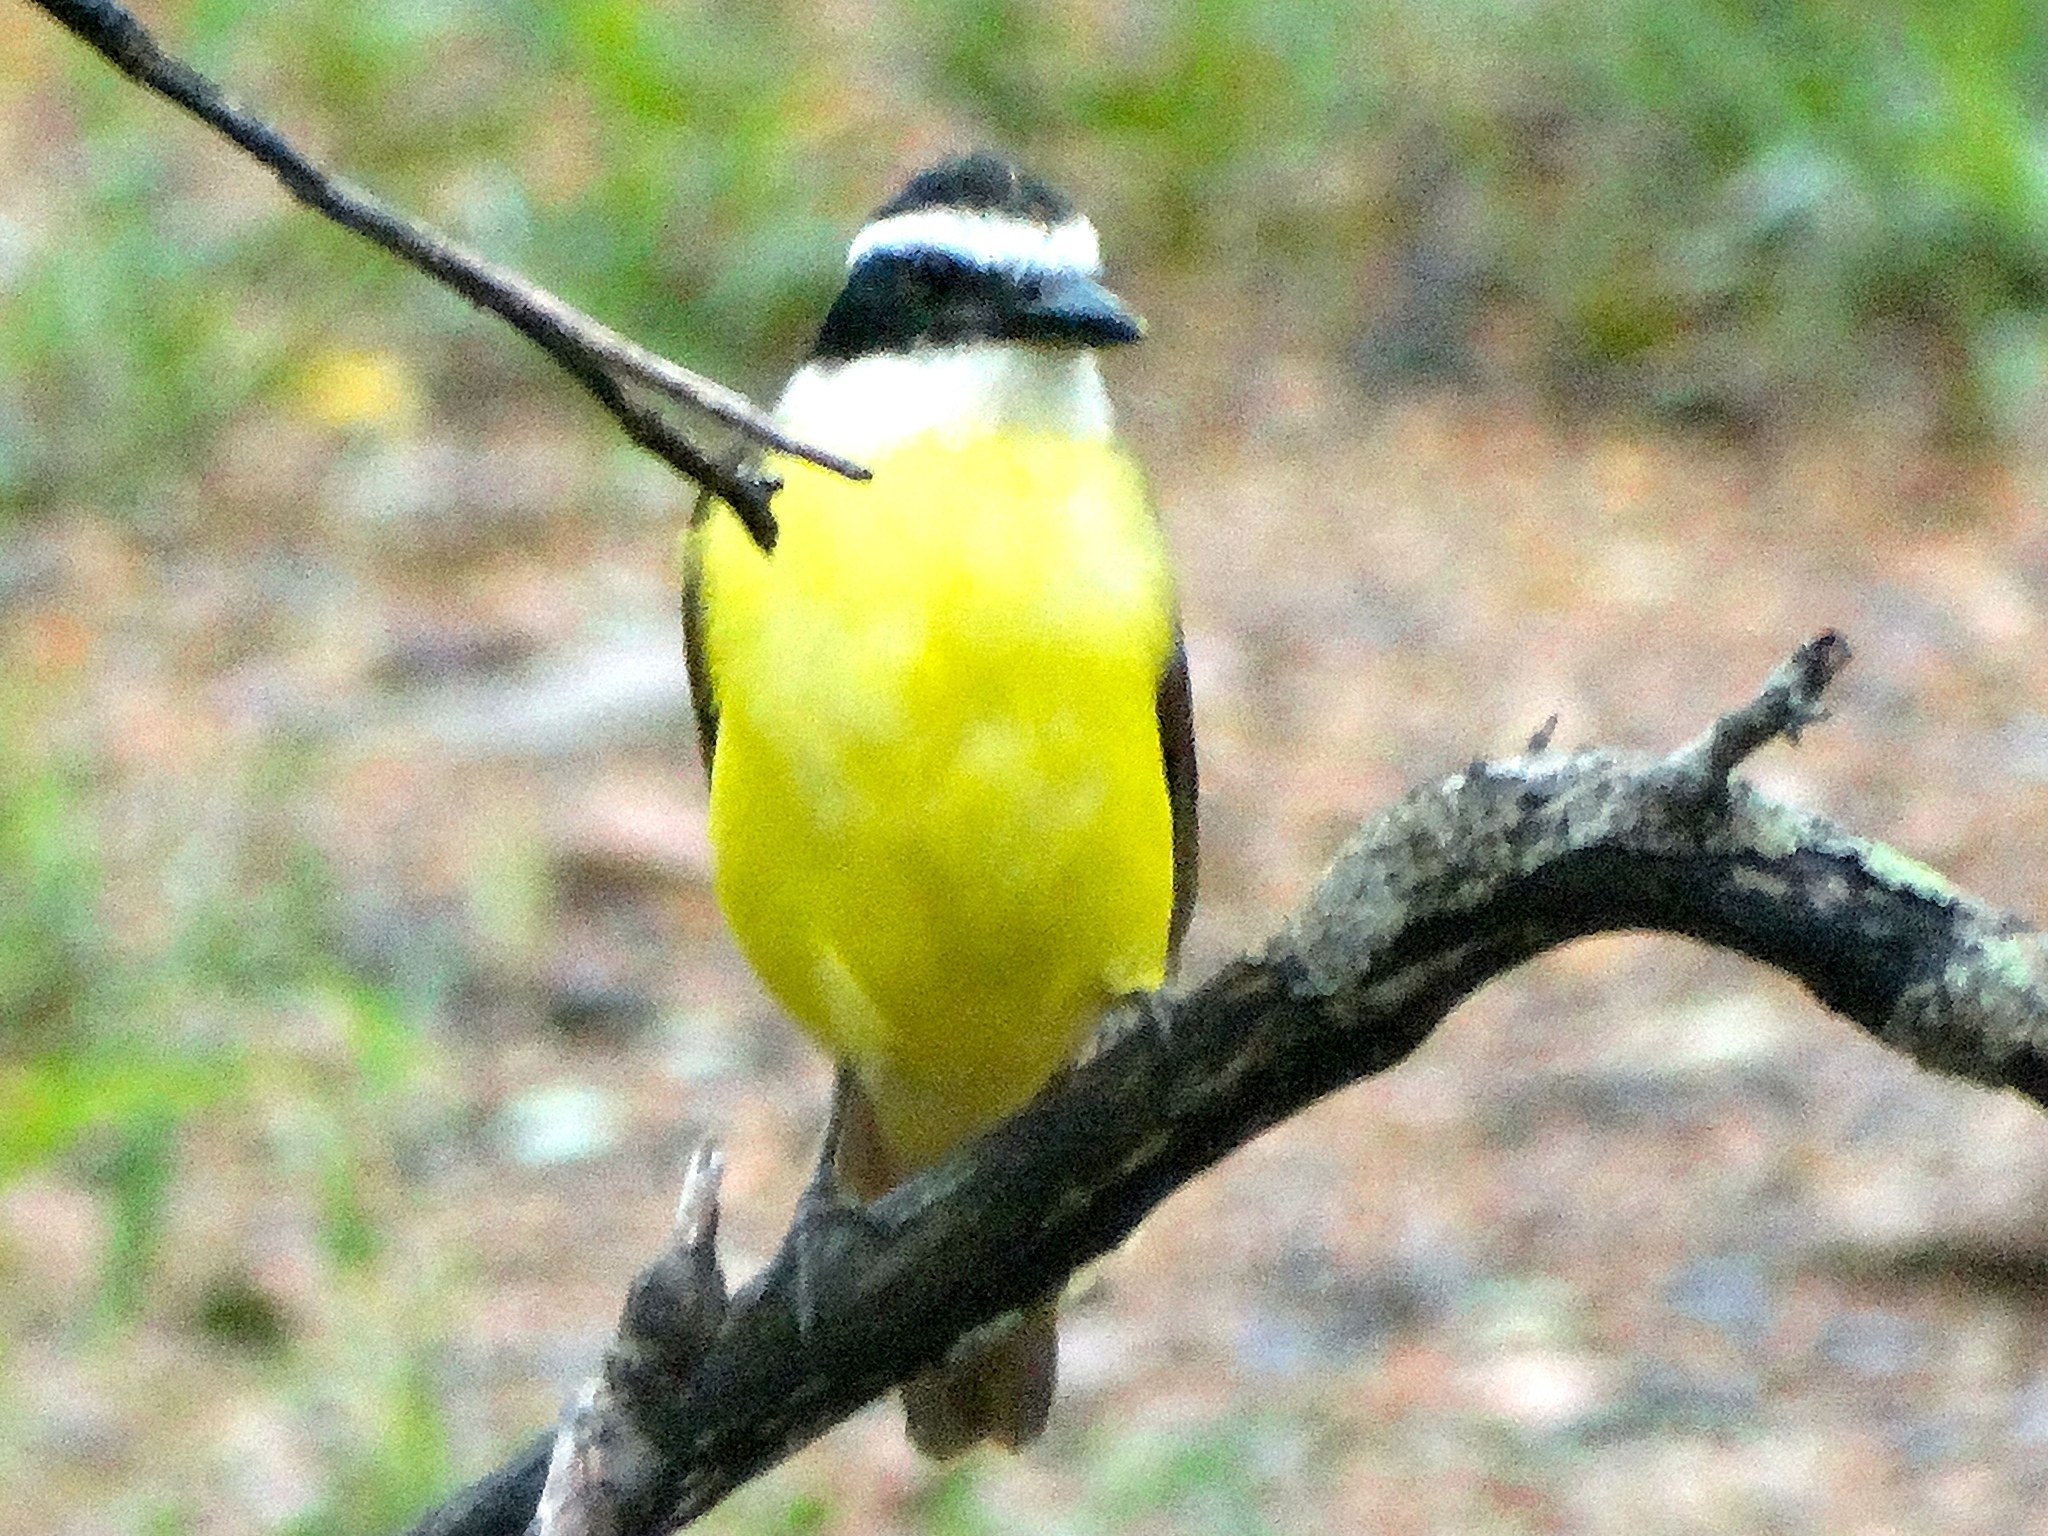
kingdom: Animalia
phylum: Chordata
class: Aves
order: Passeriformes
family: Tyrannidae
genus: Pitangus
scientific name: Pitangus sulphuratus
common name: Great kiskadee
